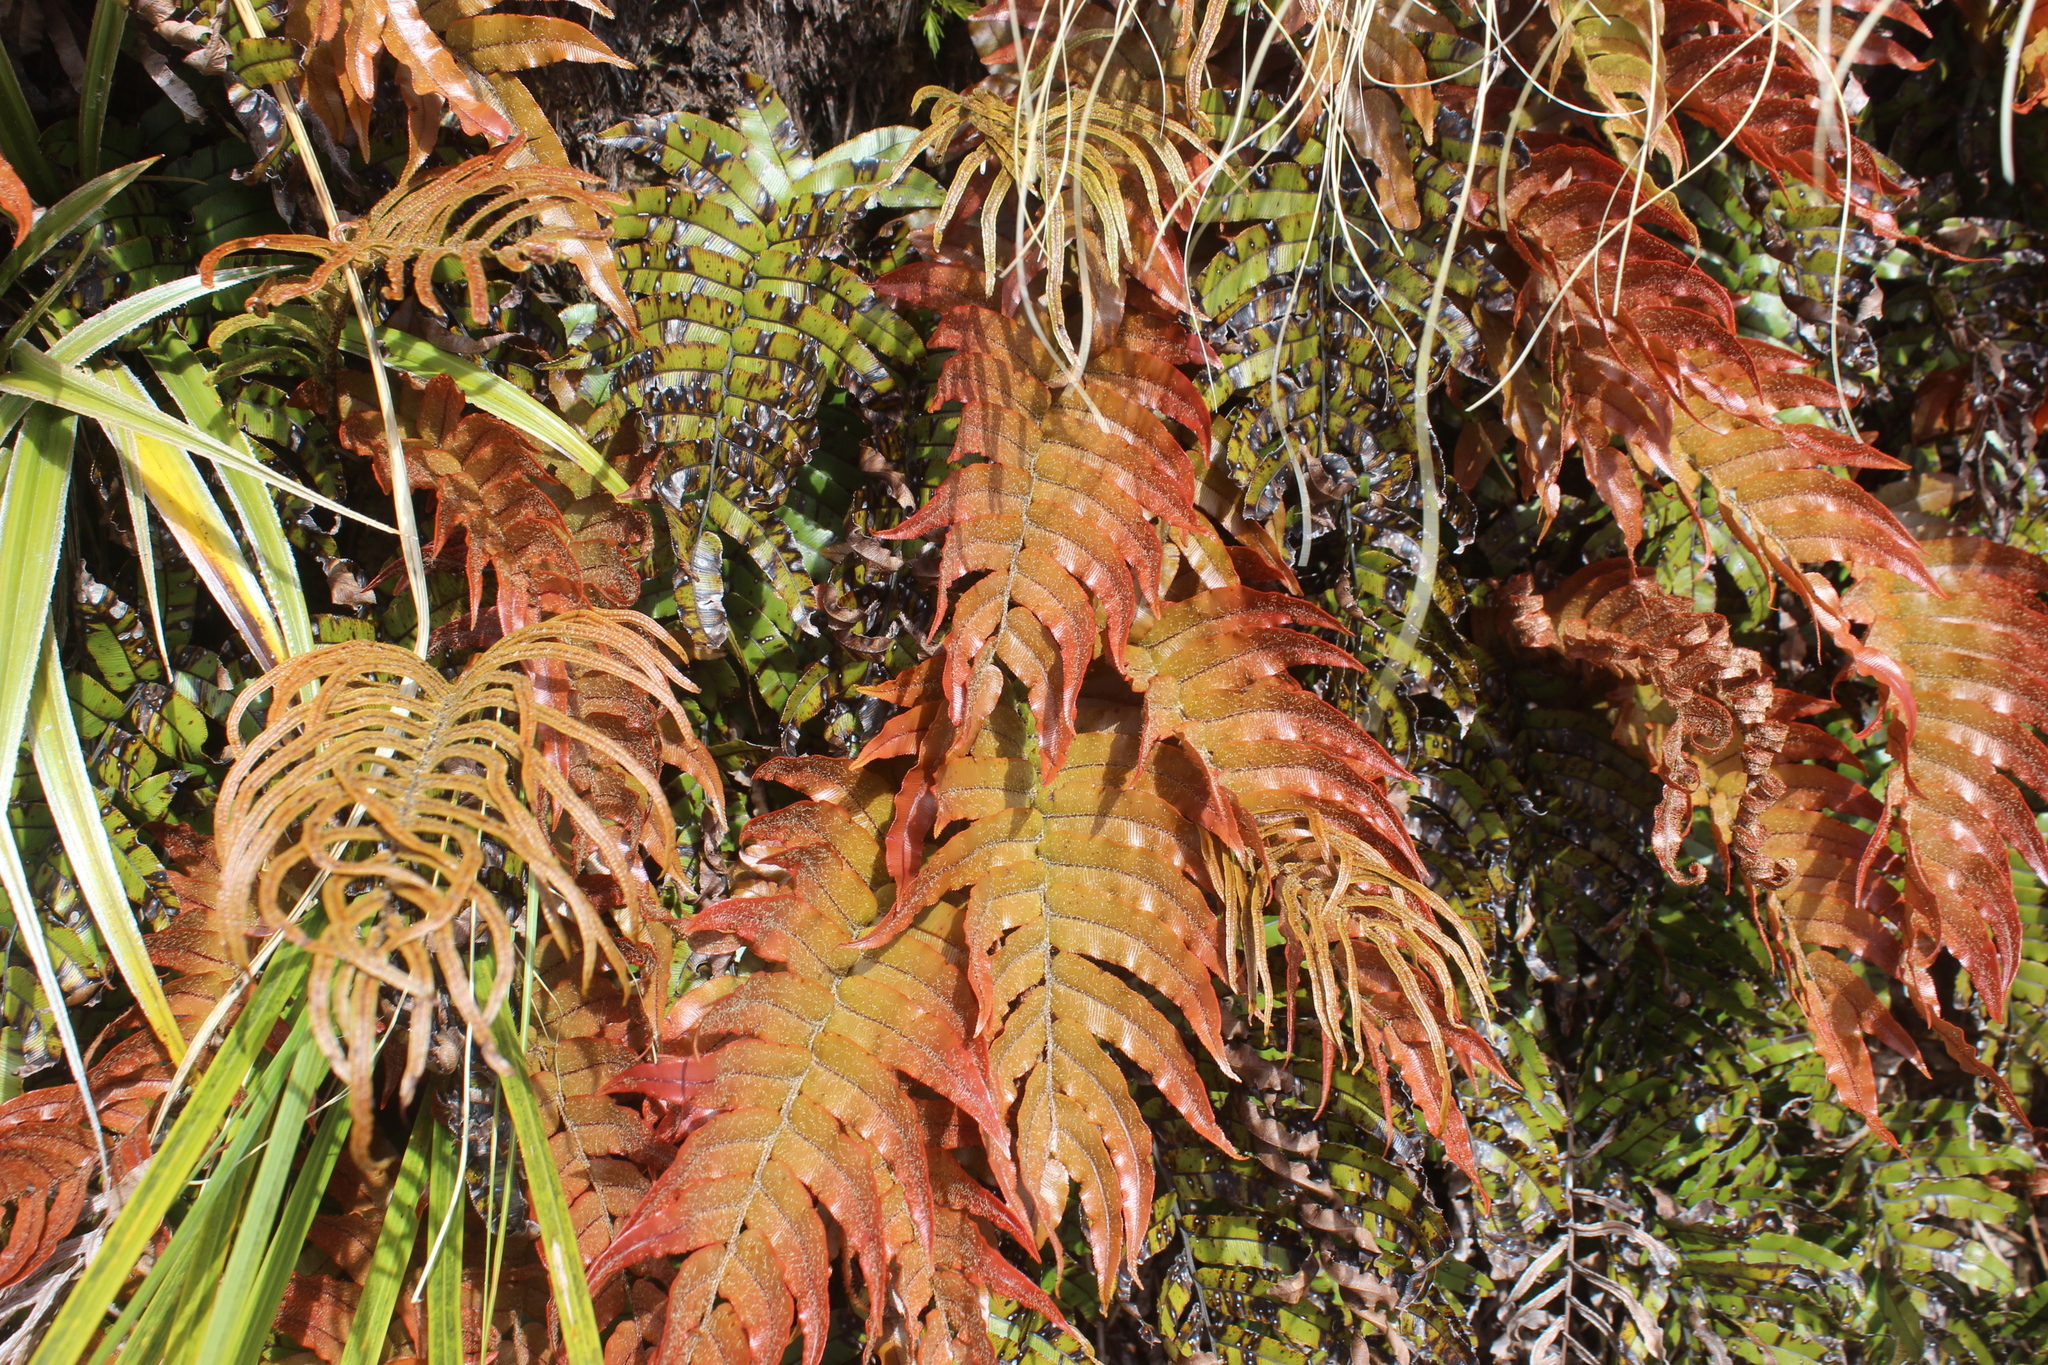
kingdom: Plantae
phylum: Tracheophyta
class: Polypodiopsida
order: Polypodiales
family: Blechnaceae
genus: Parablechnum
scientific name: Parablechnum montanum
